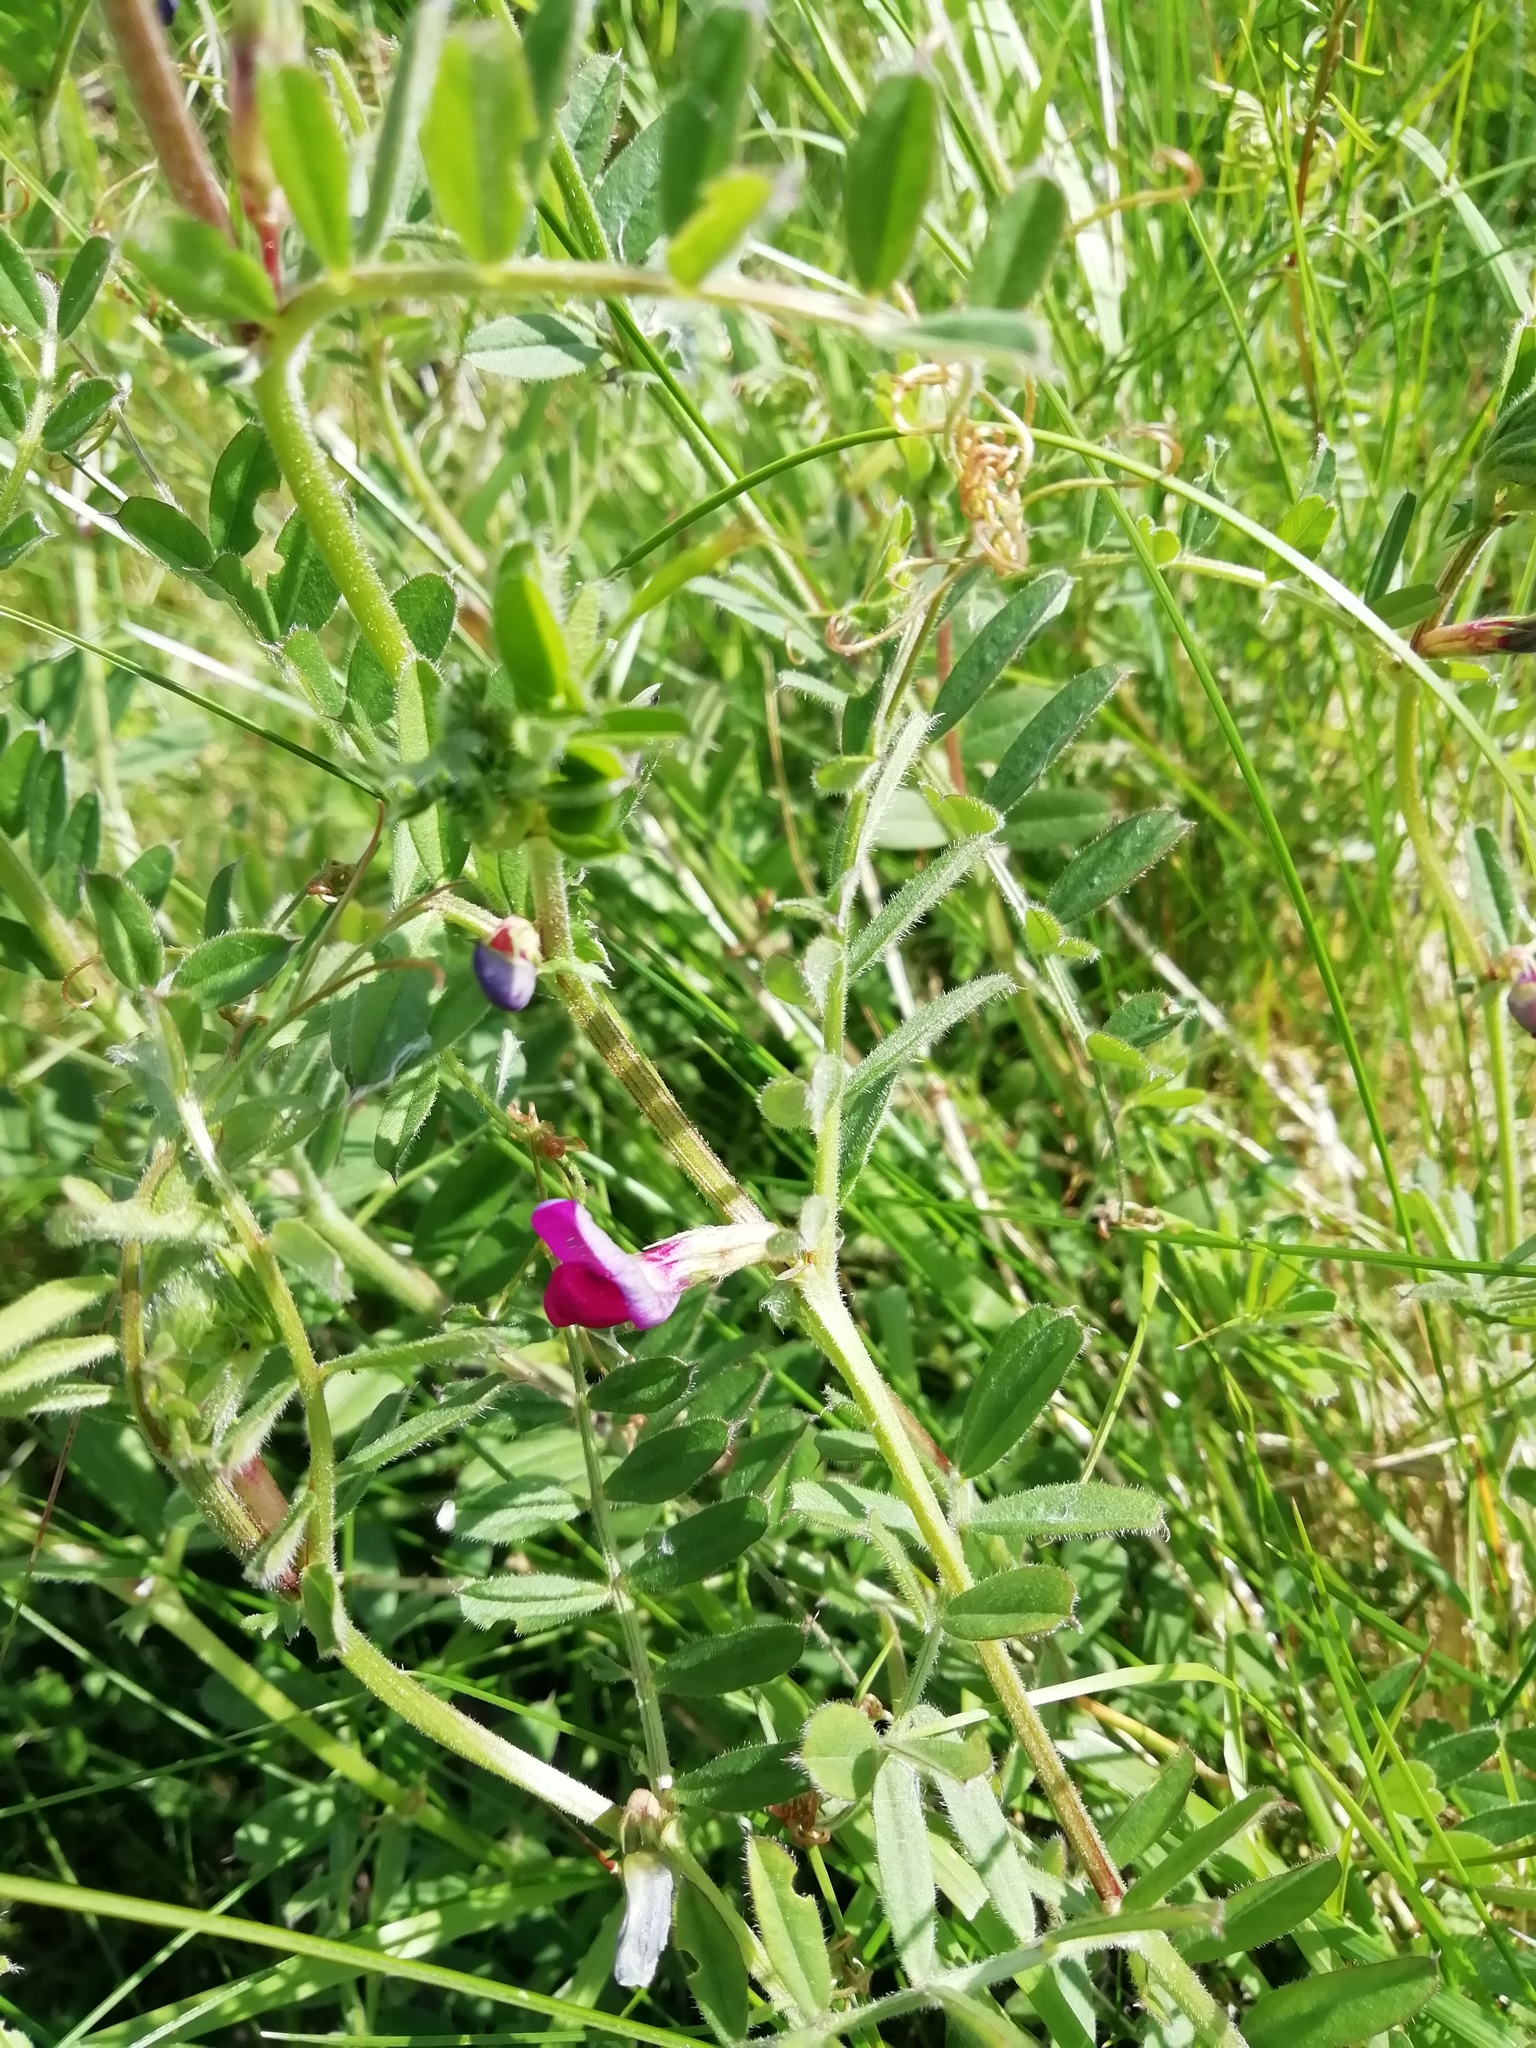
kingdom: Plantae
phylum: Tracheophyta
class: Magnoliopsida
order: Fabales
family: Fabaceae
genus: Vicia
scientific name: Vicia sativa
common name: Garden vetch
